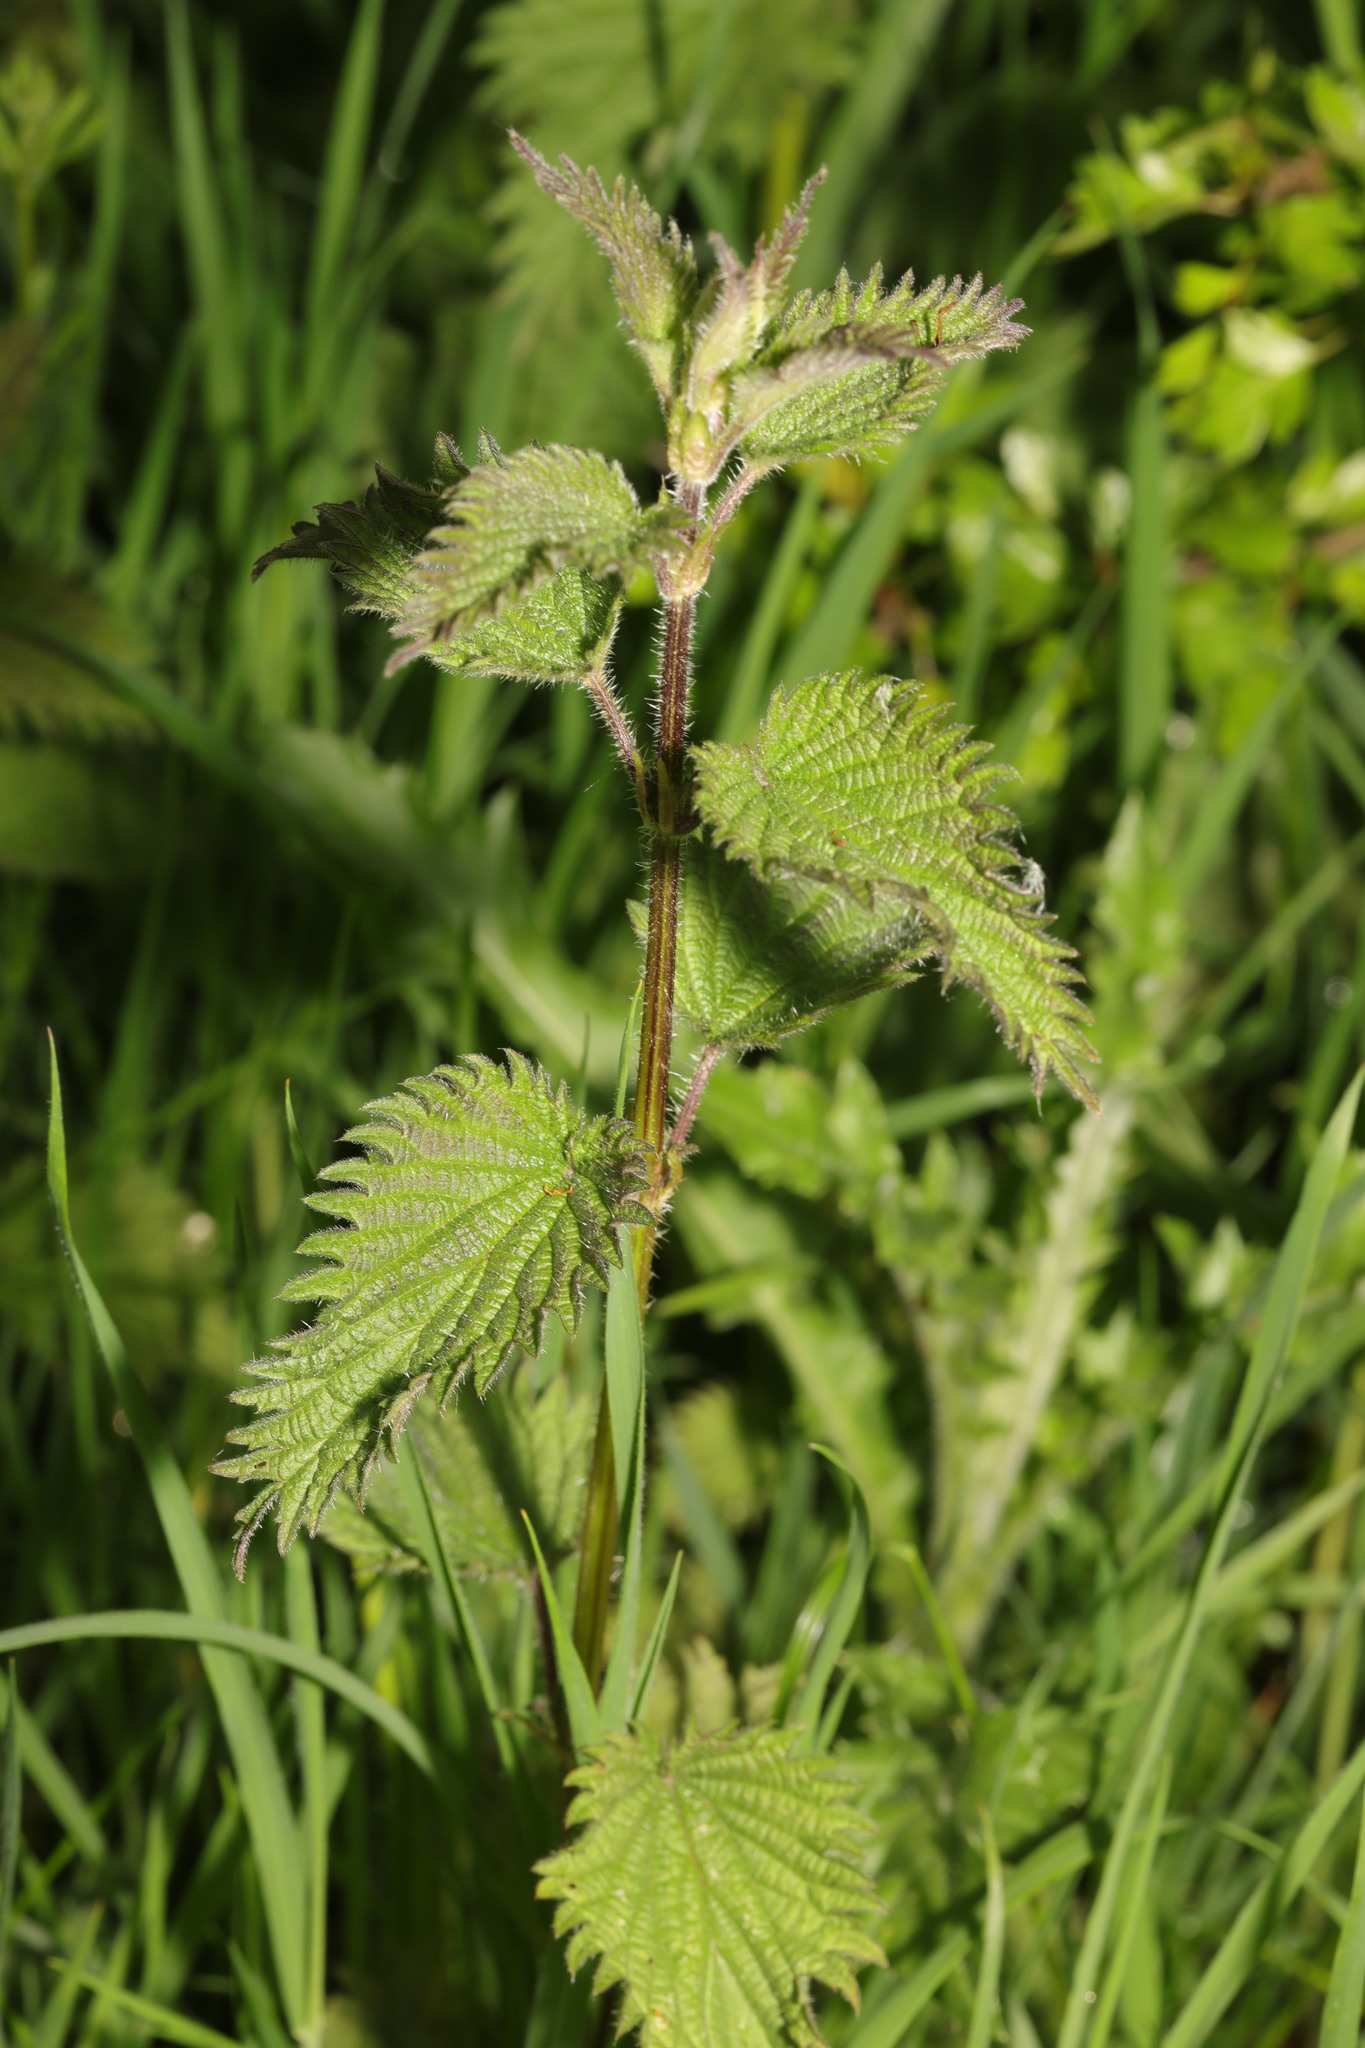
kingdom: Plantae
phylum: Tracheophyta
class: Magnoliopsida
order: Rosales
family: Urticaceae
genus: Urtica
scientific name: Urtica dioica
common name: Common nettle
